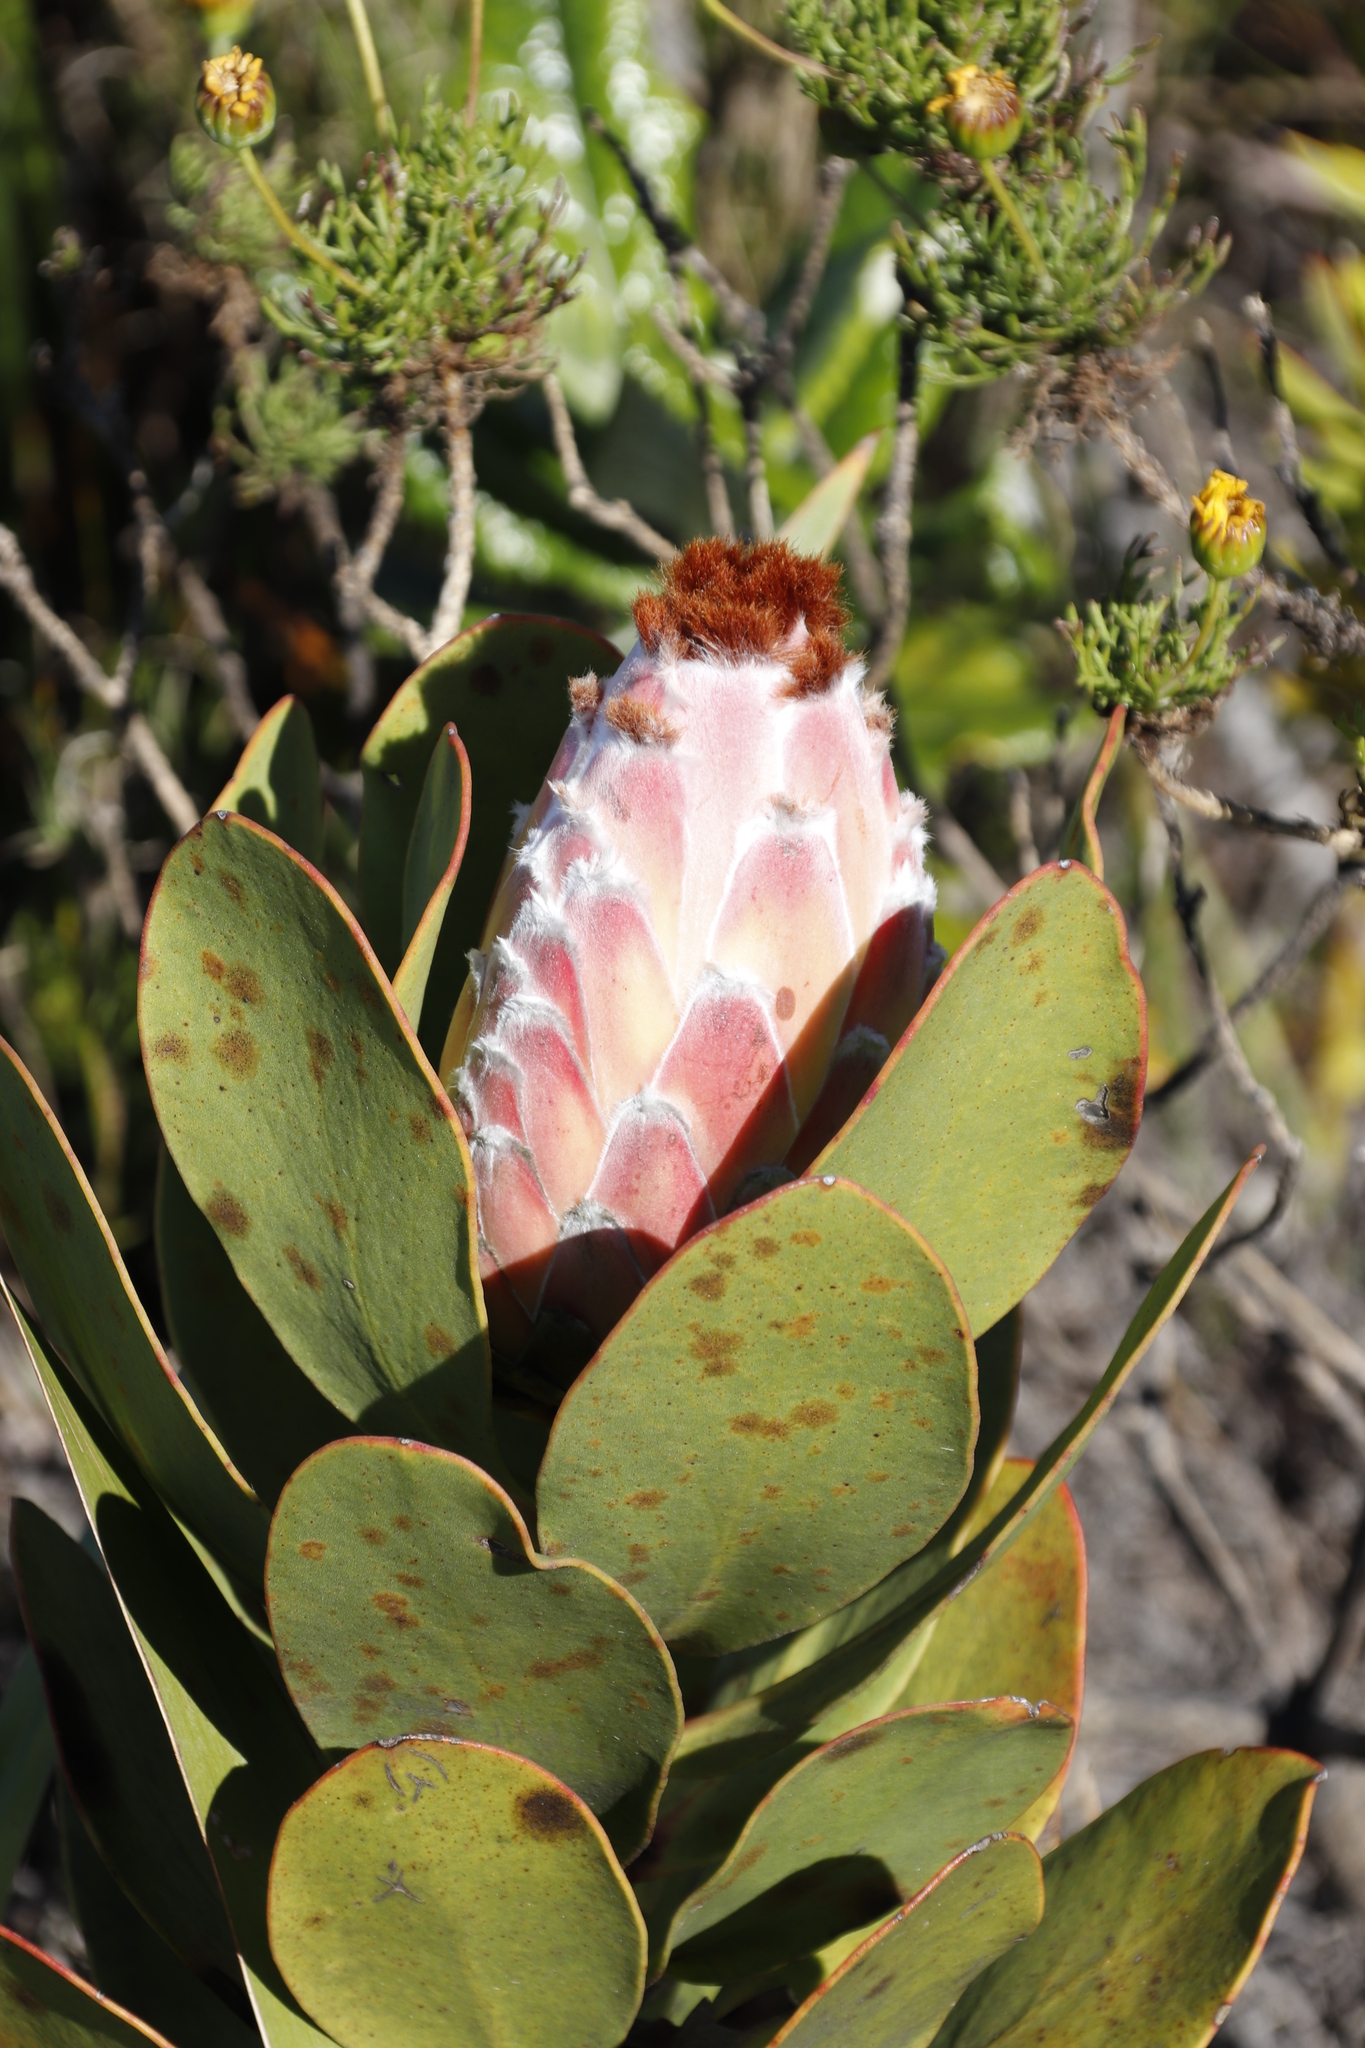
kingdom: Plantae
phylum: Tracheophyta
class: Magnoliopsida
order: Proteales
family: Proteaceae
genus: Protea
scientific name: Protea speciosa
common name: Brown-beard sugarbush
